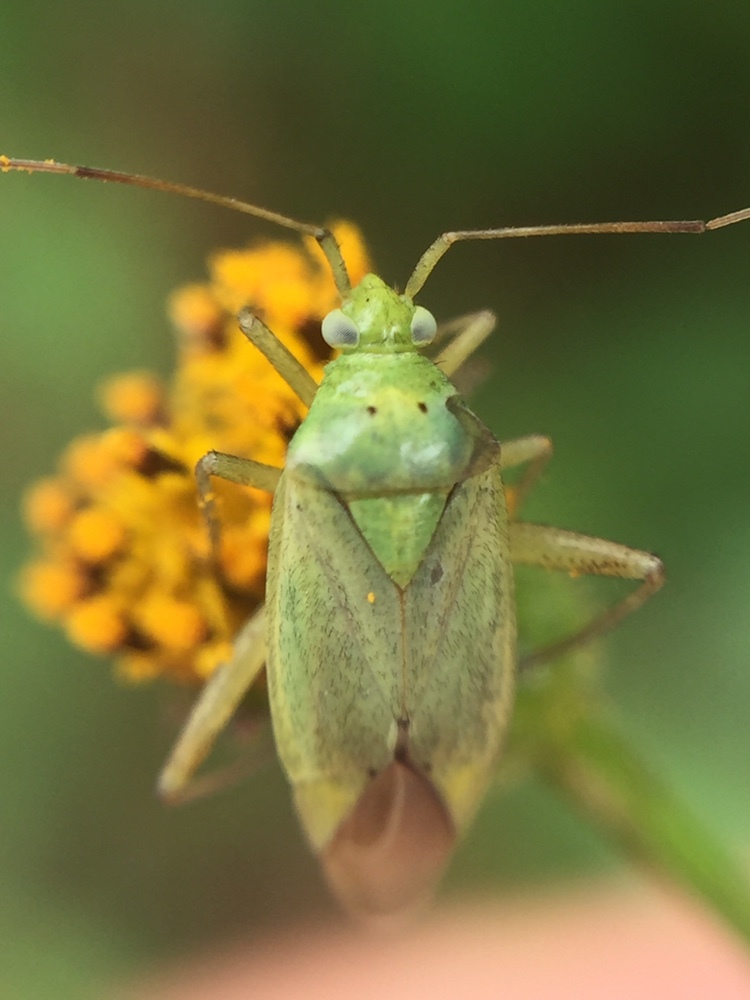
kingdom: Animalia
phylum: Arthropoda
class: Insecta
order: Hemiptera
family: Miridae
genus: Closterotomus
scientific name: Closterotomus norvegicus
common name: Plant bug
